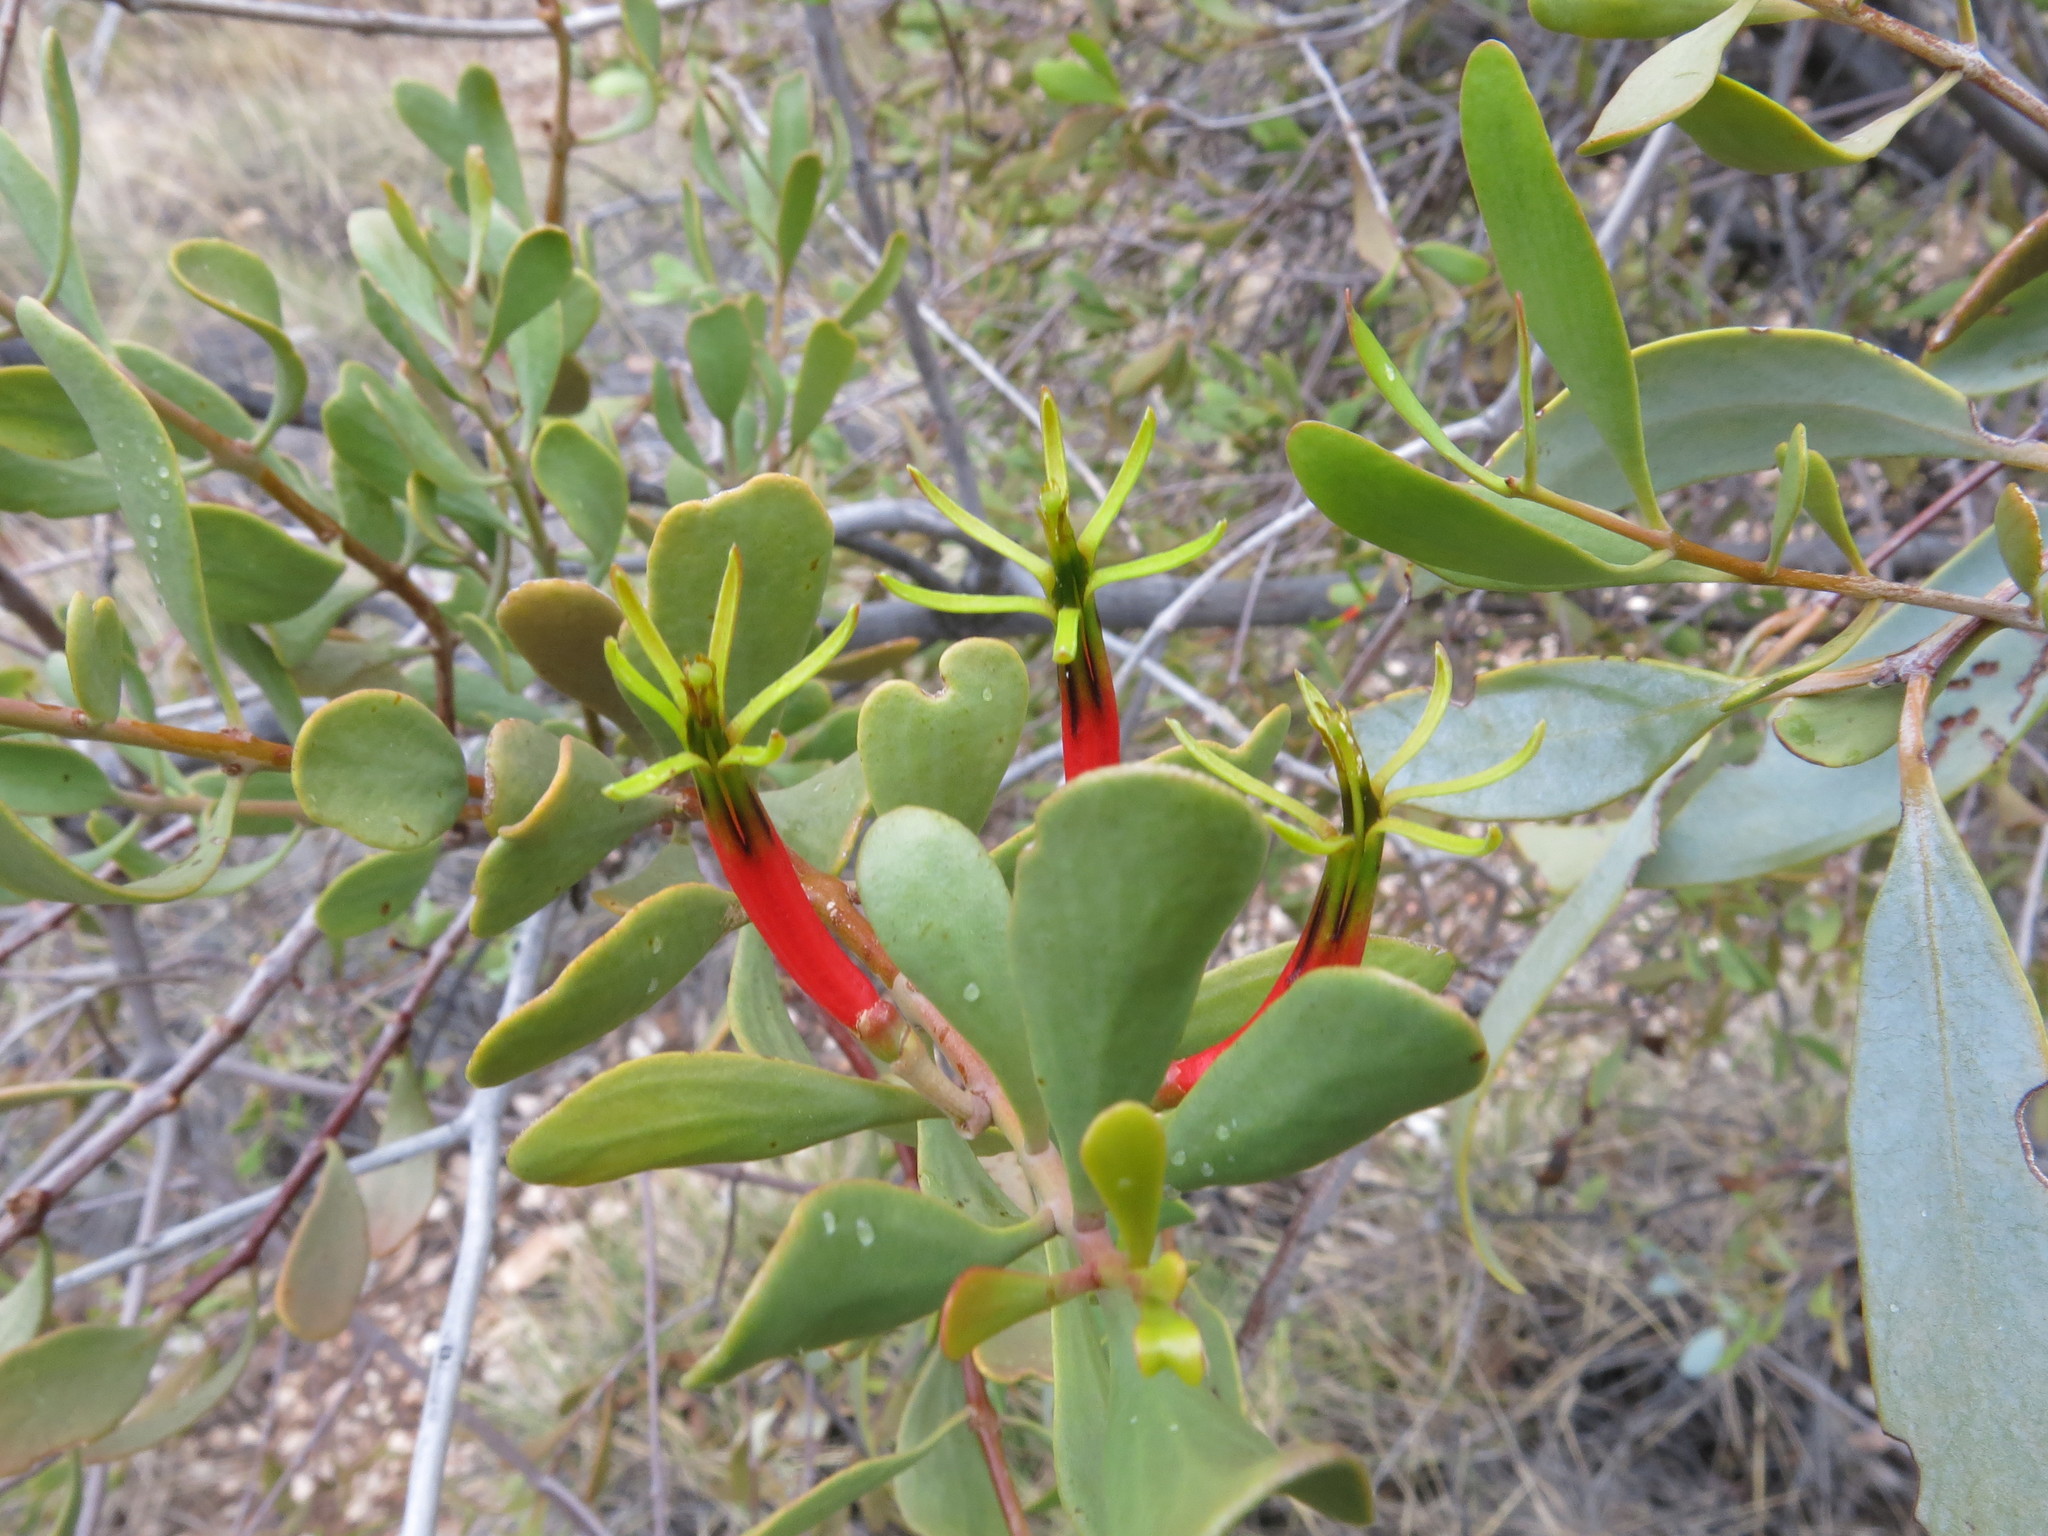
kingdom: Plantae
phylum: Tracheophyta
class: Magnoliopsida
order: Santalales
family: Loranthaceae
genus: Lysiana
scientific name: Lysiana spathulata
